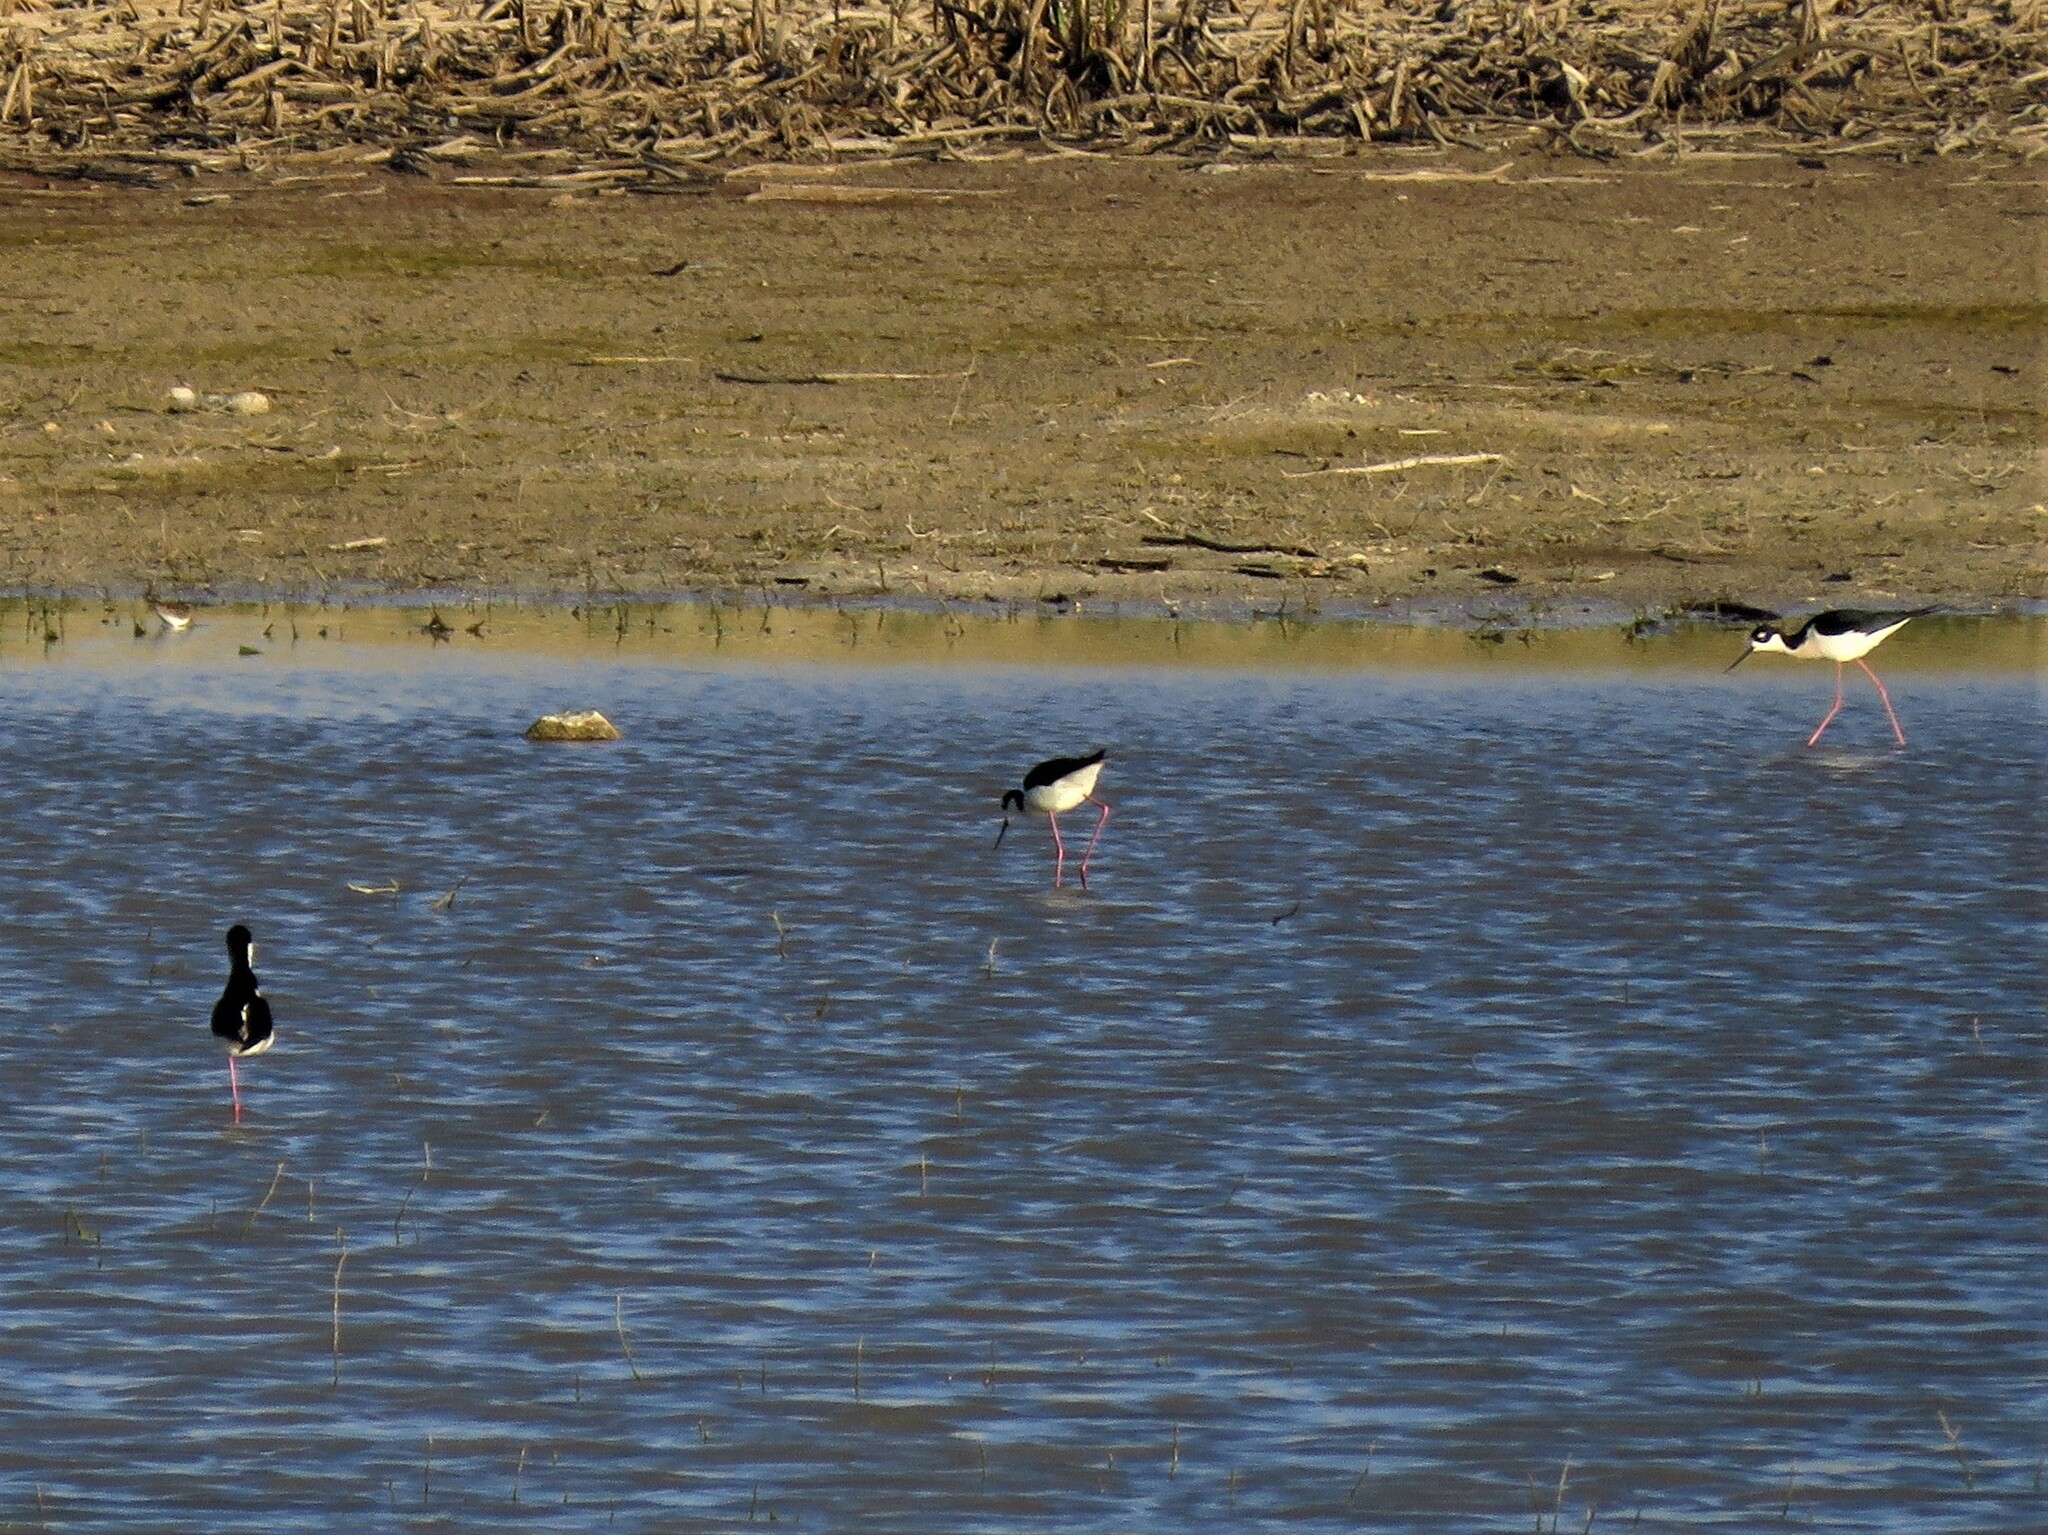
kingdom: Animalia
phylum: Chordata
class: Aves
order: Charadriiformes
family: Recurvirostridae
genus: Himantopus
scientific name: Himantopus mexicanus
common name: Black-necked stilt
